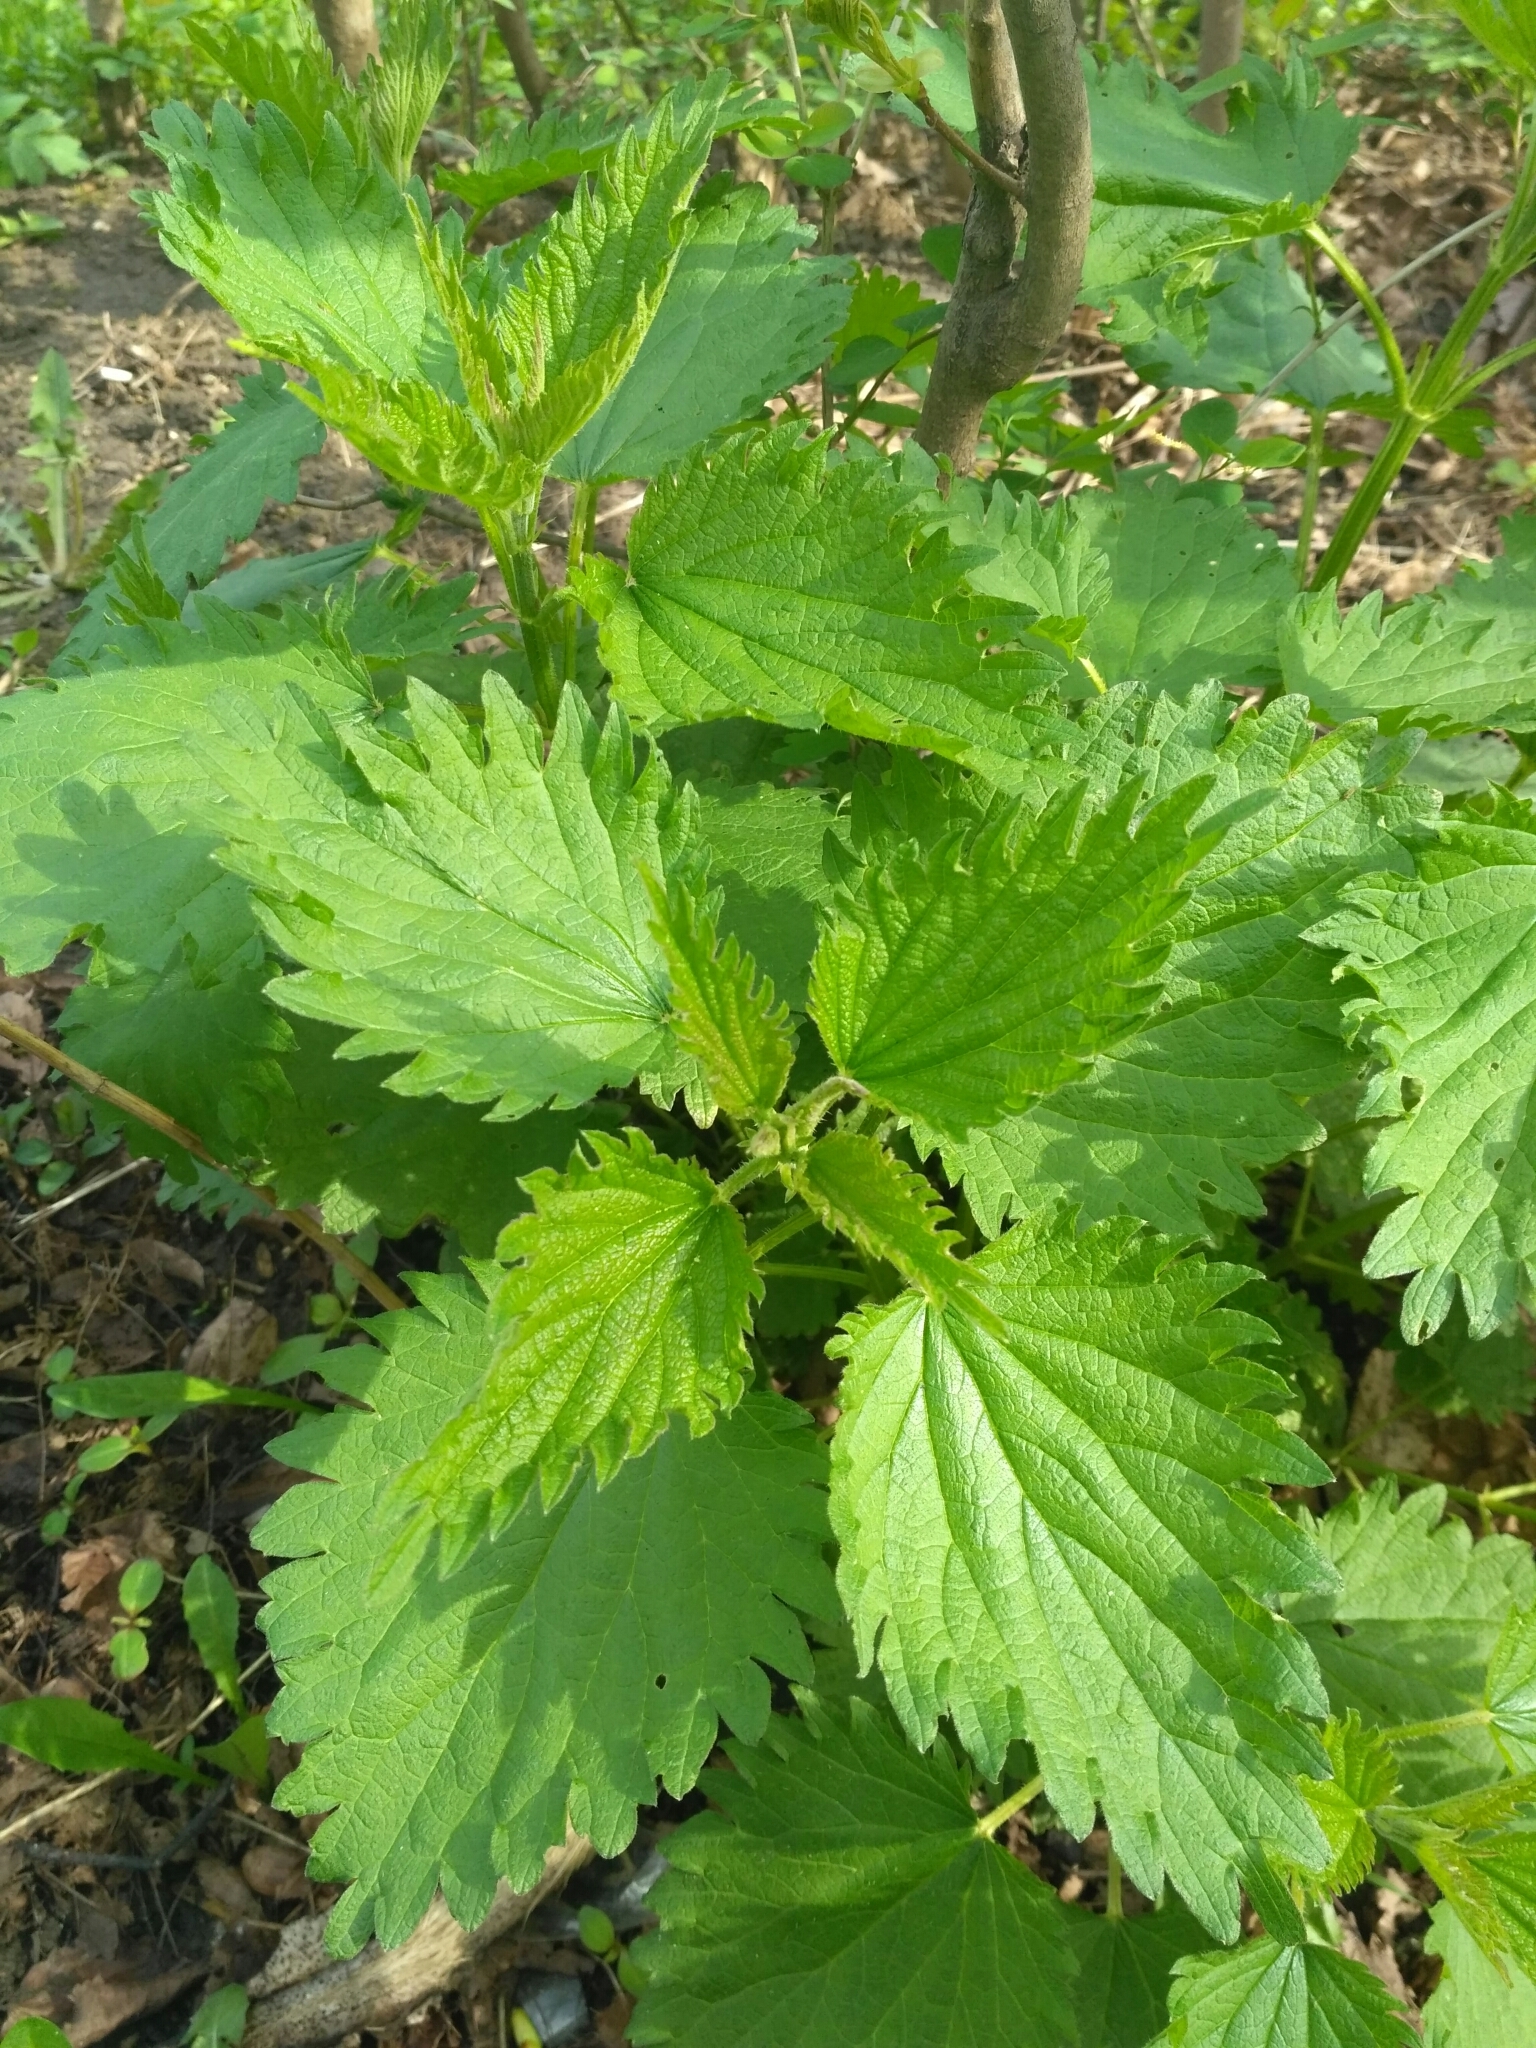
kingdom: Plantae
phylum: Tracheophyta
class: Magnoliopsida
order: Rosales
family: Urticaceae
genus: Urtica
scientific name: Urtica dioica
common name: Common nettle
